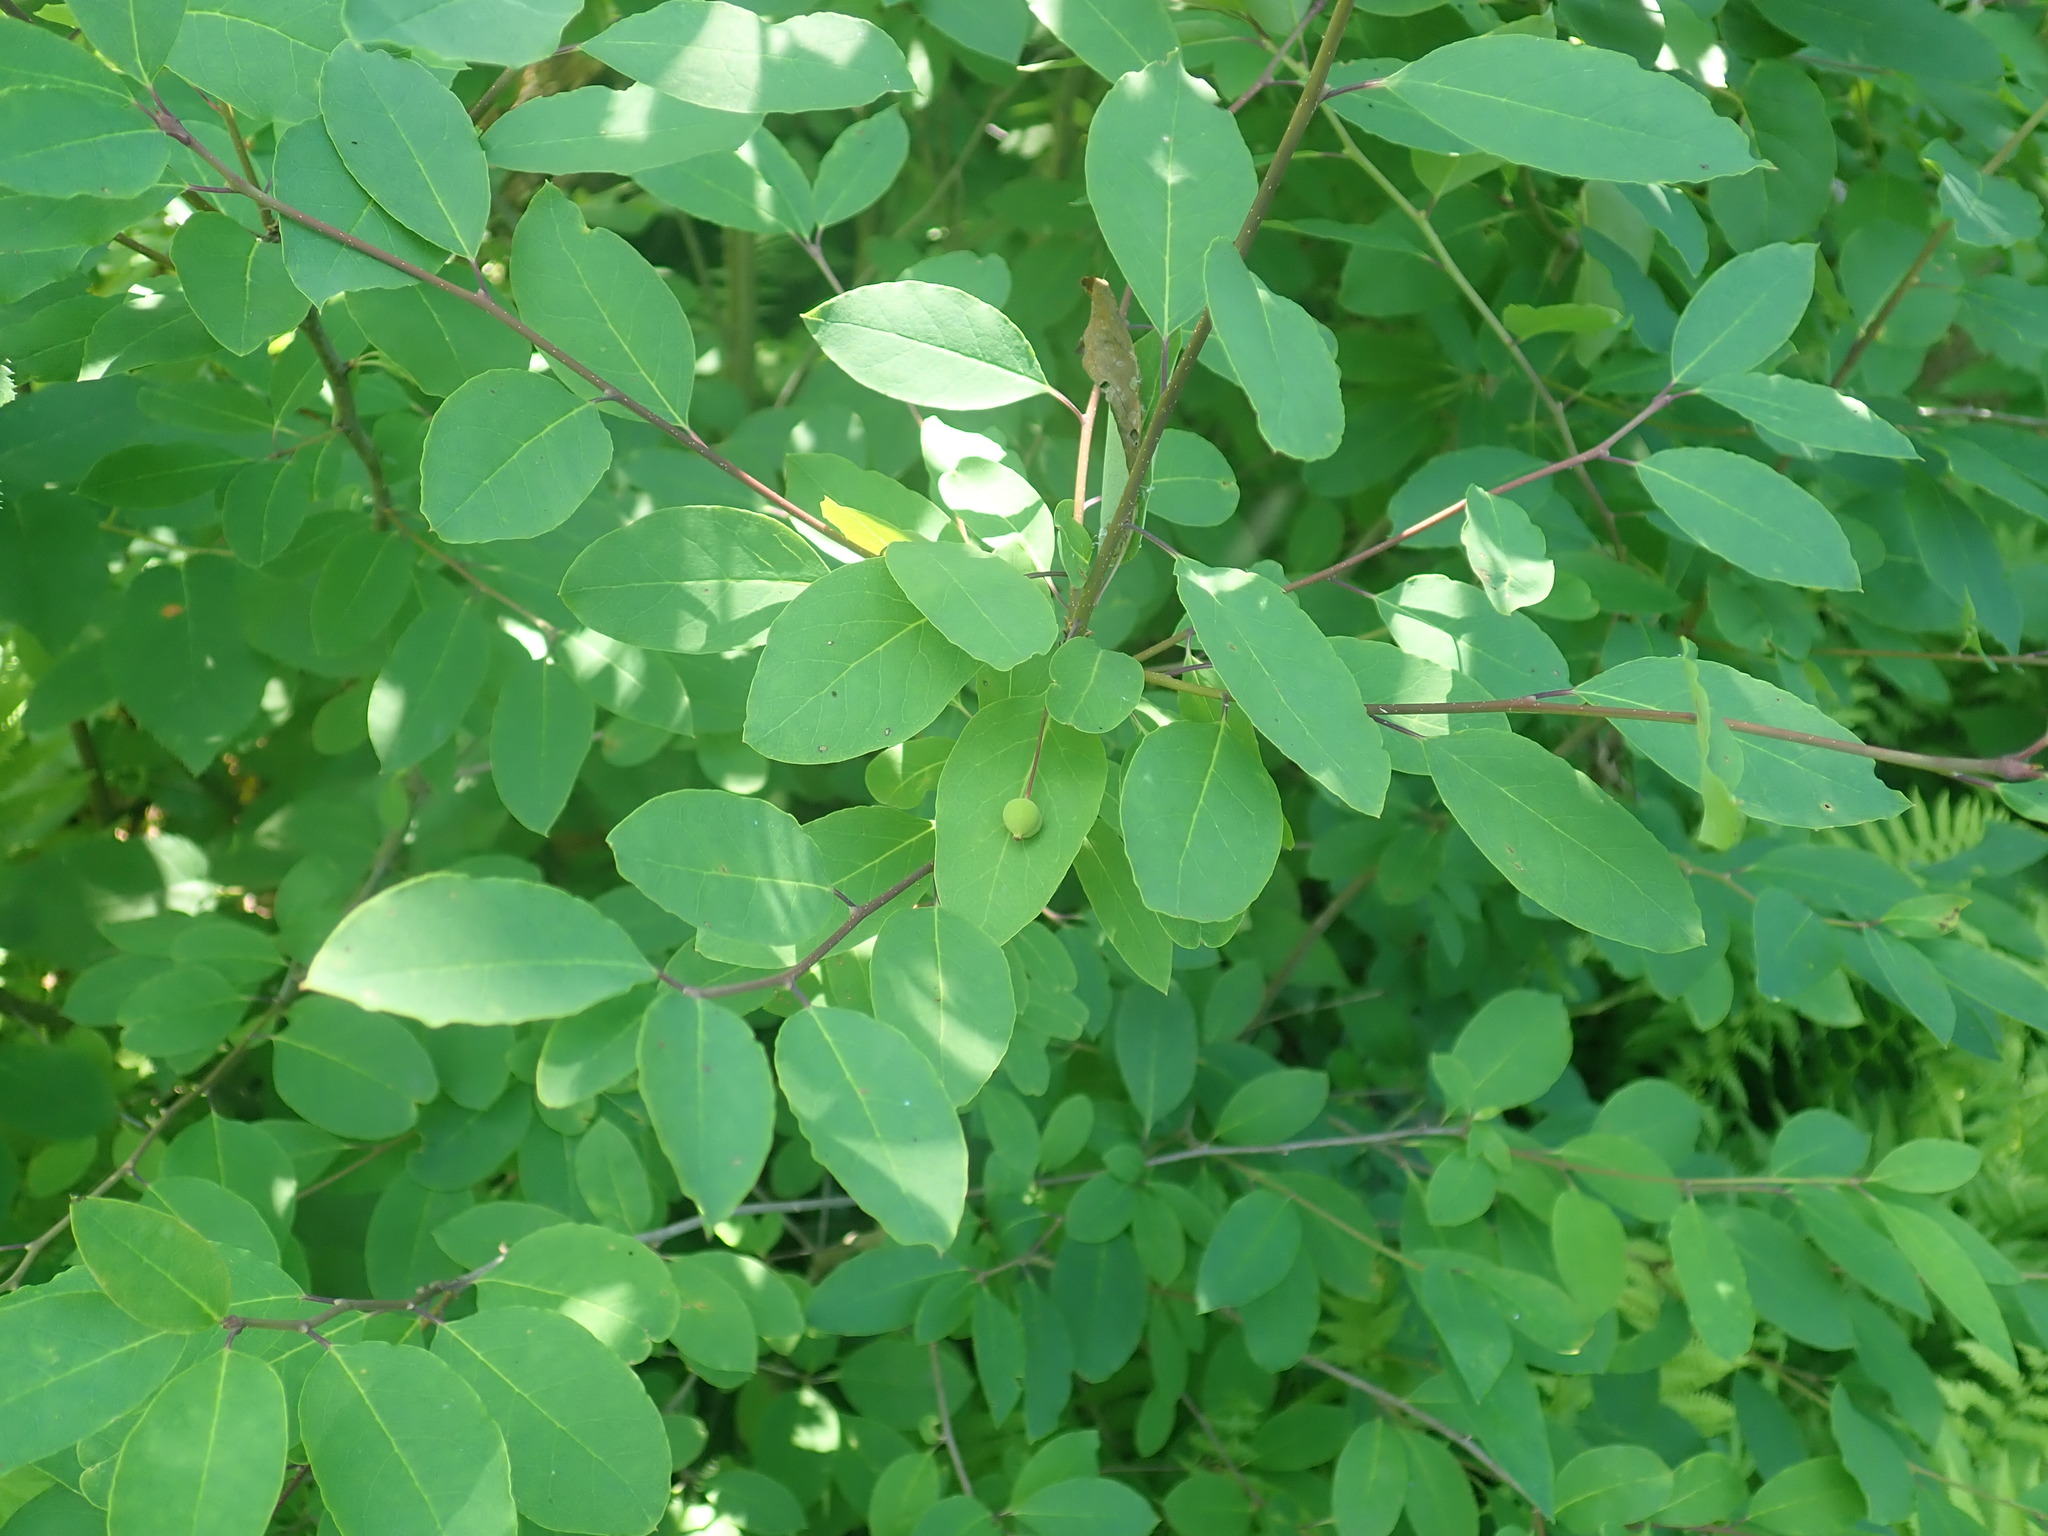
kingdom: Plantae
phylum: Tracheophyta
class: Magnoliopsida
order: Aquifoliales
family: Aquifoliaceae
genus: Ilex
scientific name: Ilex mucronata
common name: Catberry
